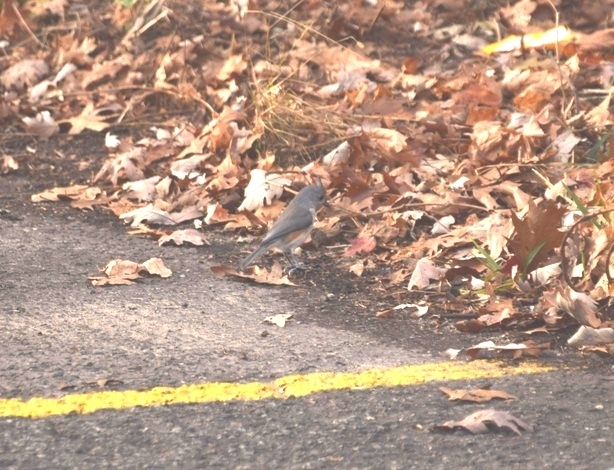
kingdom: Animalia
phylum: Chordata
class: Aves
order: Passeriformes
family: Paridae
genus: Baeolophus
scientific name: Baeolophus bicolor
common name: Tufted titmouse
